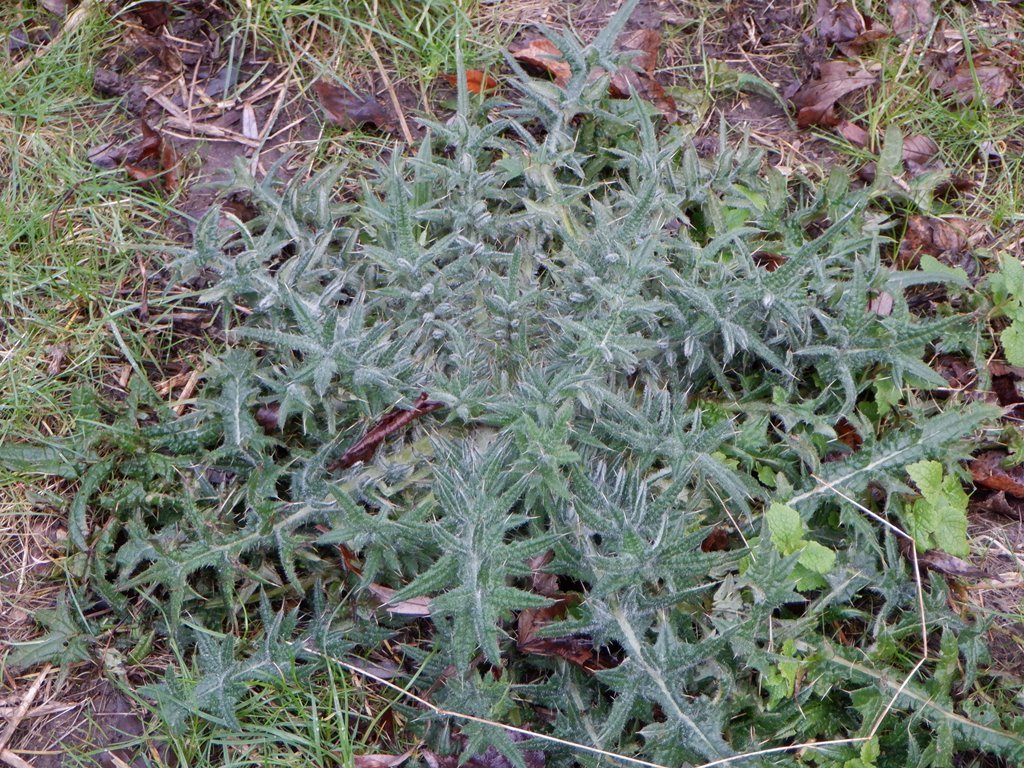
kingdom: Plantae
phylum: Tracheophyta
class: Magnoliopsida
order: Asterales
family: Asteraceae
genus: Cirsium
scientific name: Cirsium vulgare
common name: Bull thistle
